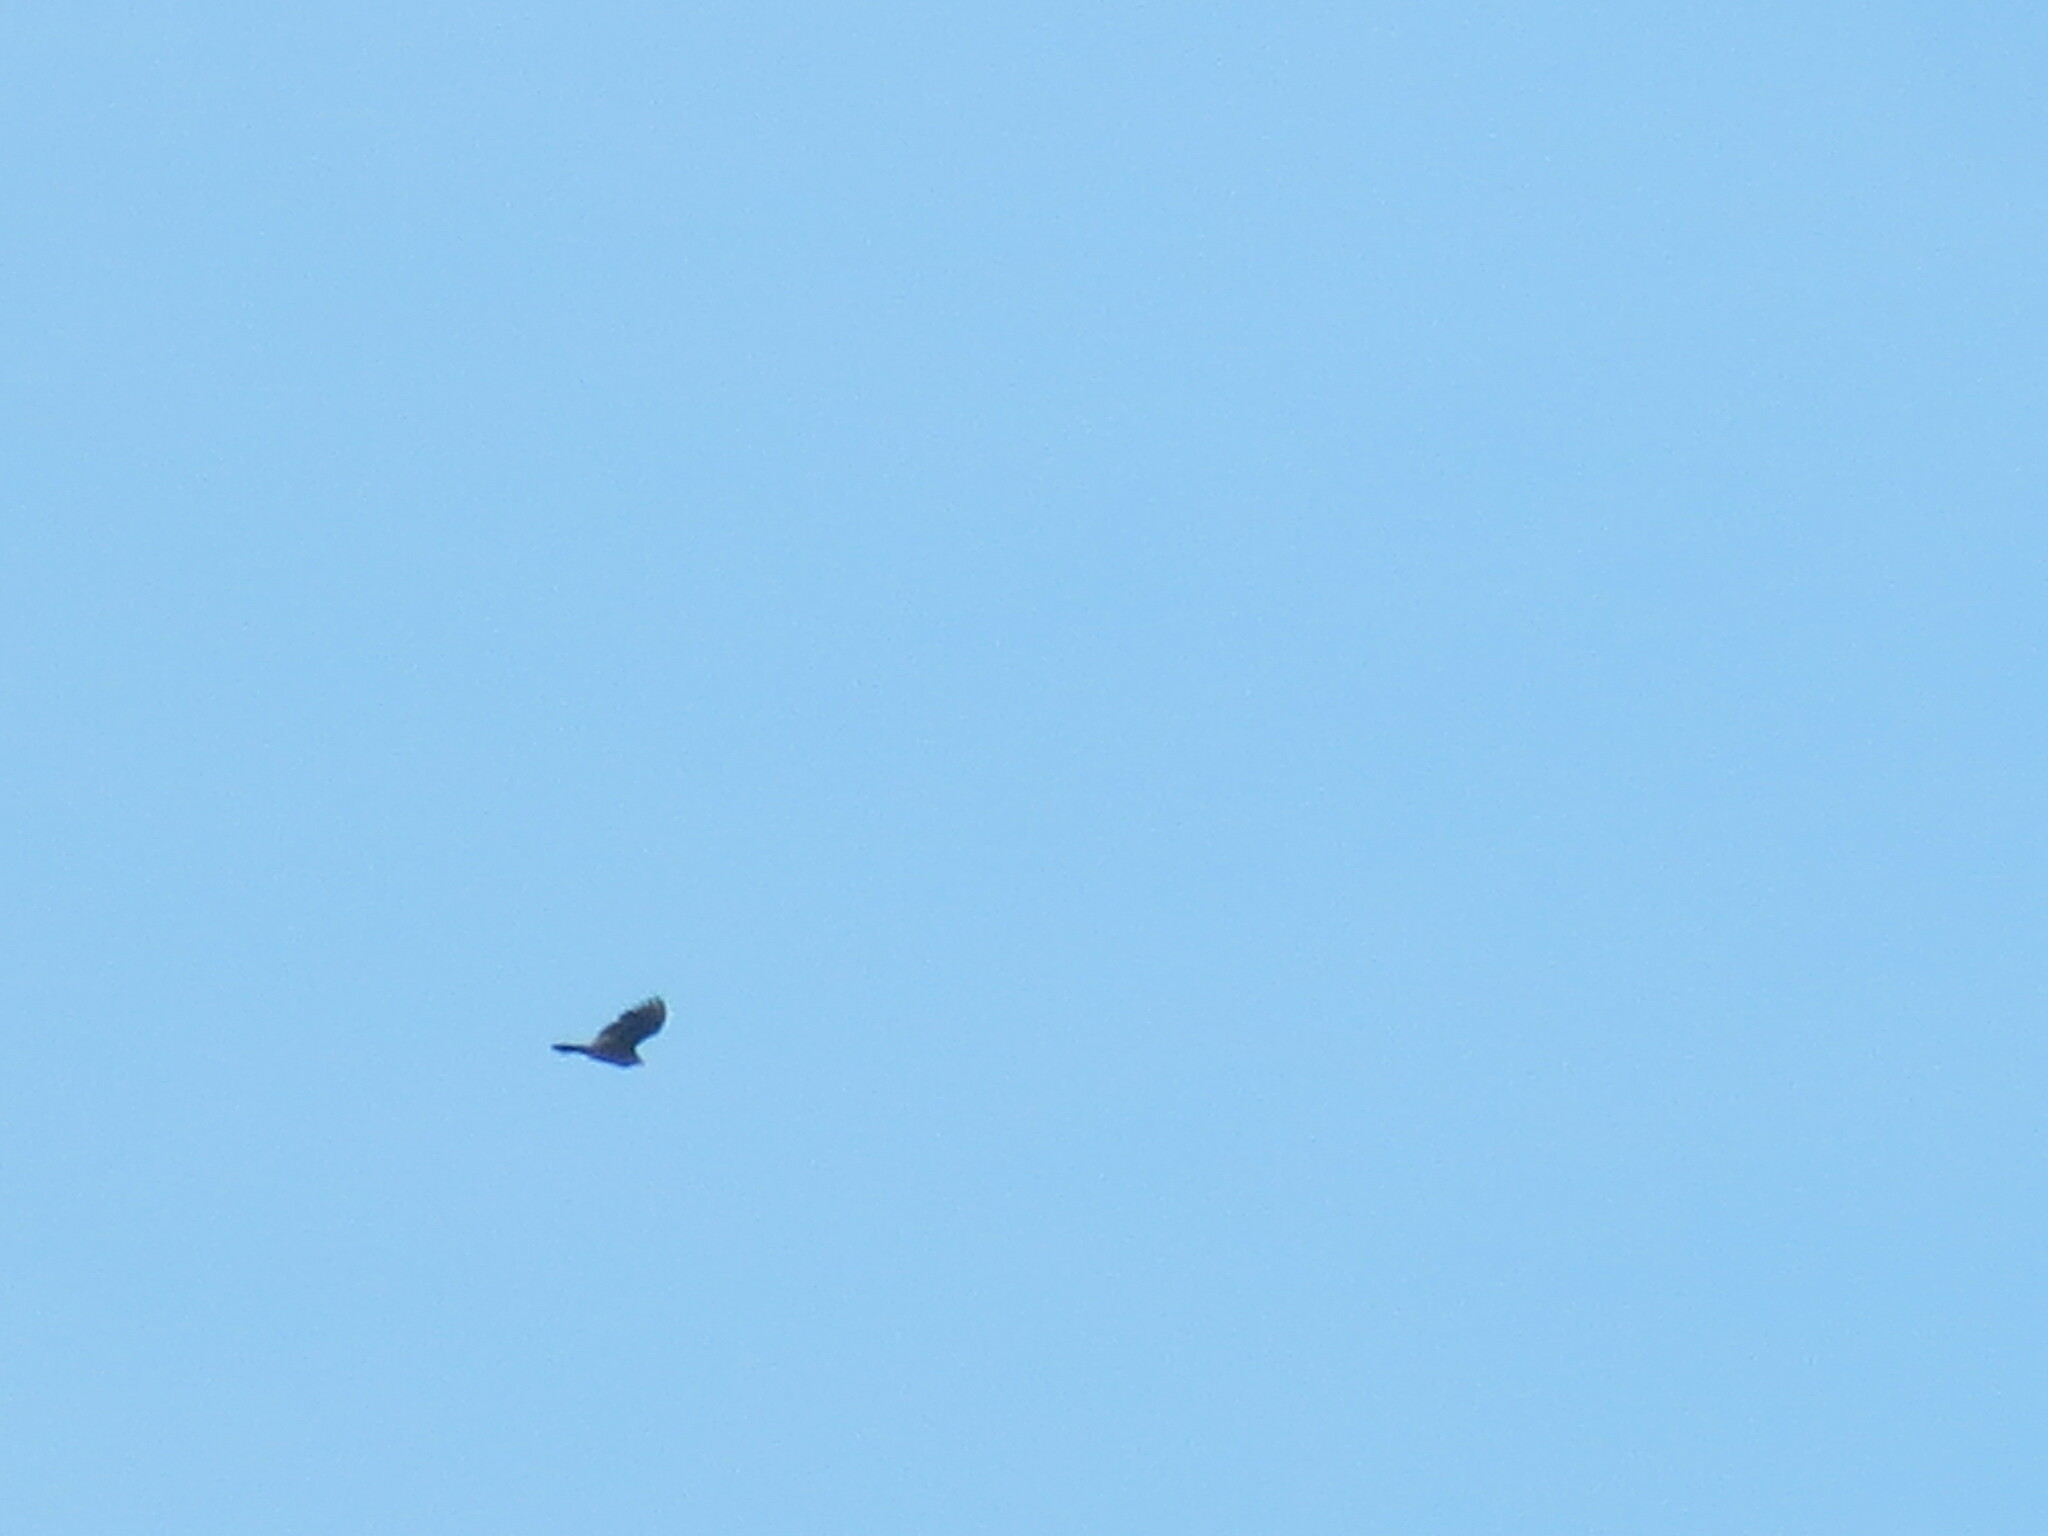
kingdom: Animalia
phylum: Chordata
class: Aves
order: Accipitriformes
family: Cathartidae
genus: Cathartes
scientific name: Cathartes aura
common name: Turkey vulture
